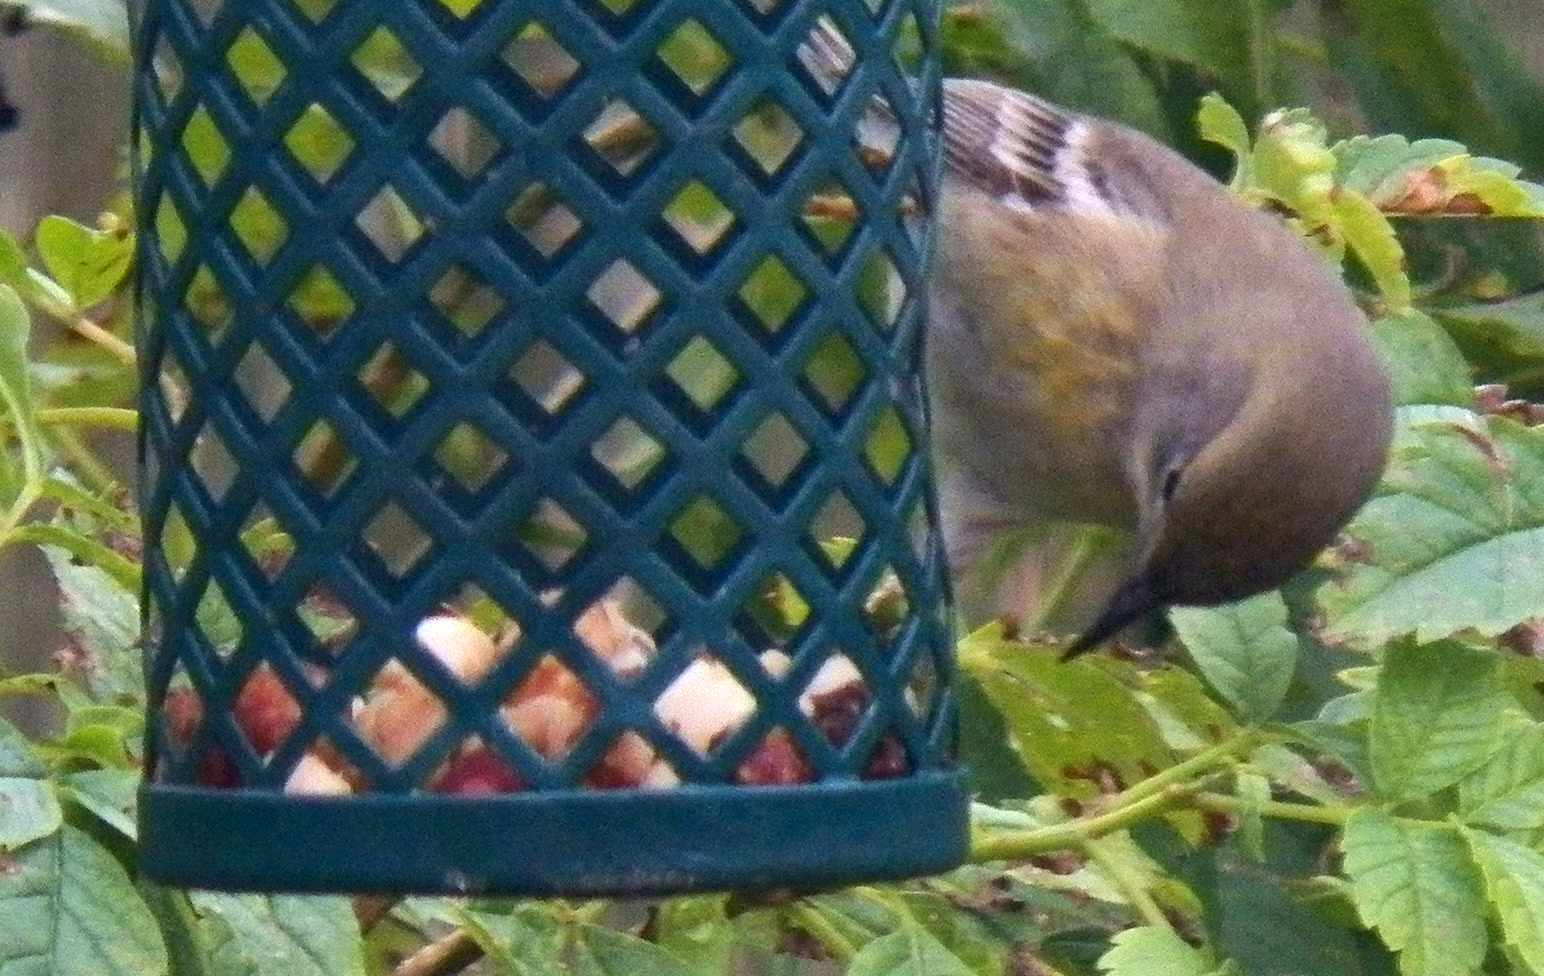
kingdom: Animalia
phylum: Chordata
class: Aves
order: Passeriformes
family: Parulidae
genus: Setophaga
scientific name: Setophaga pinus
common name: Pine warbler
